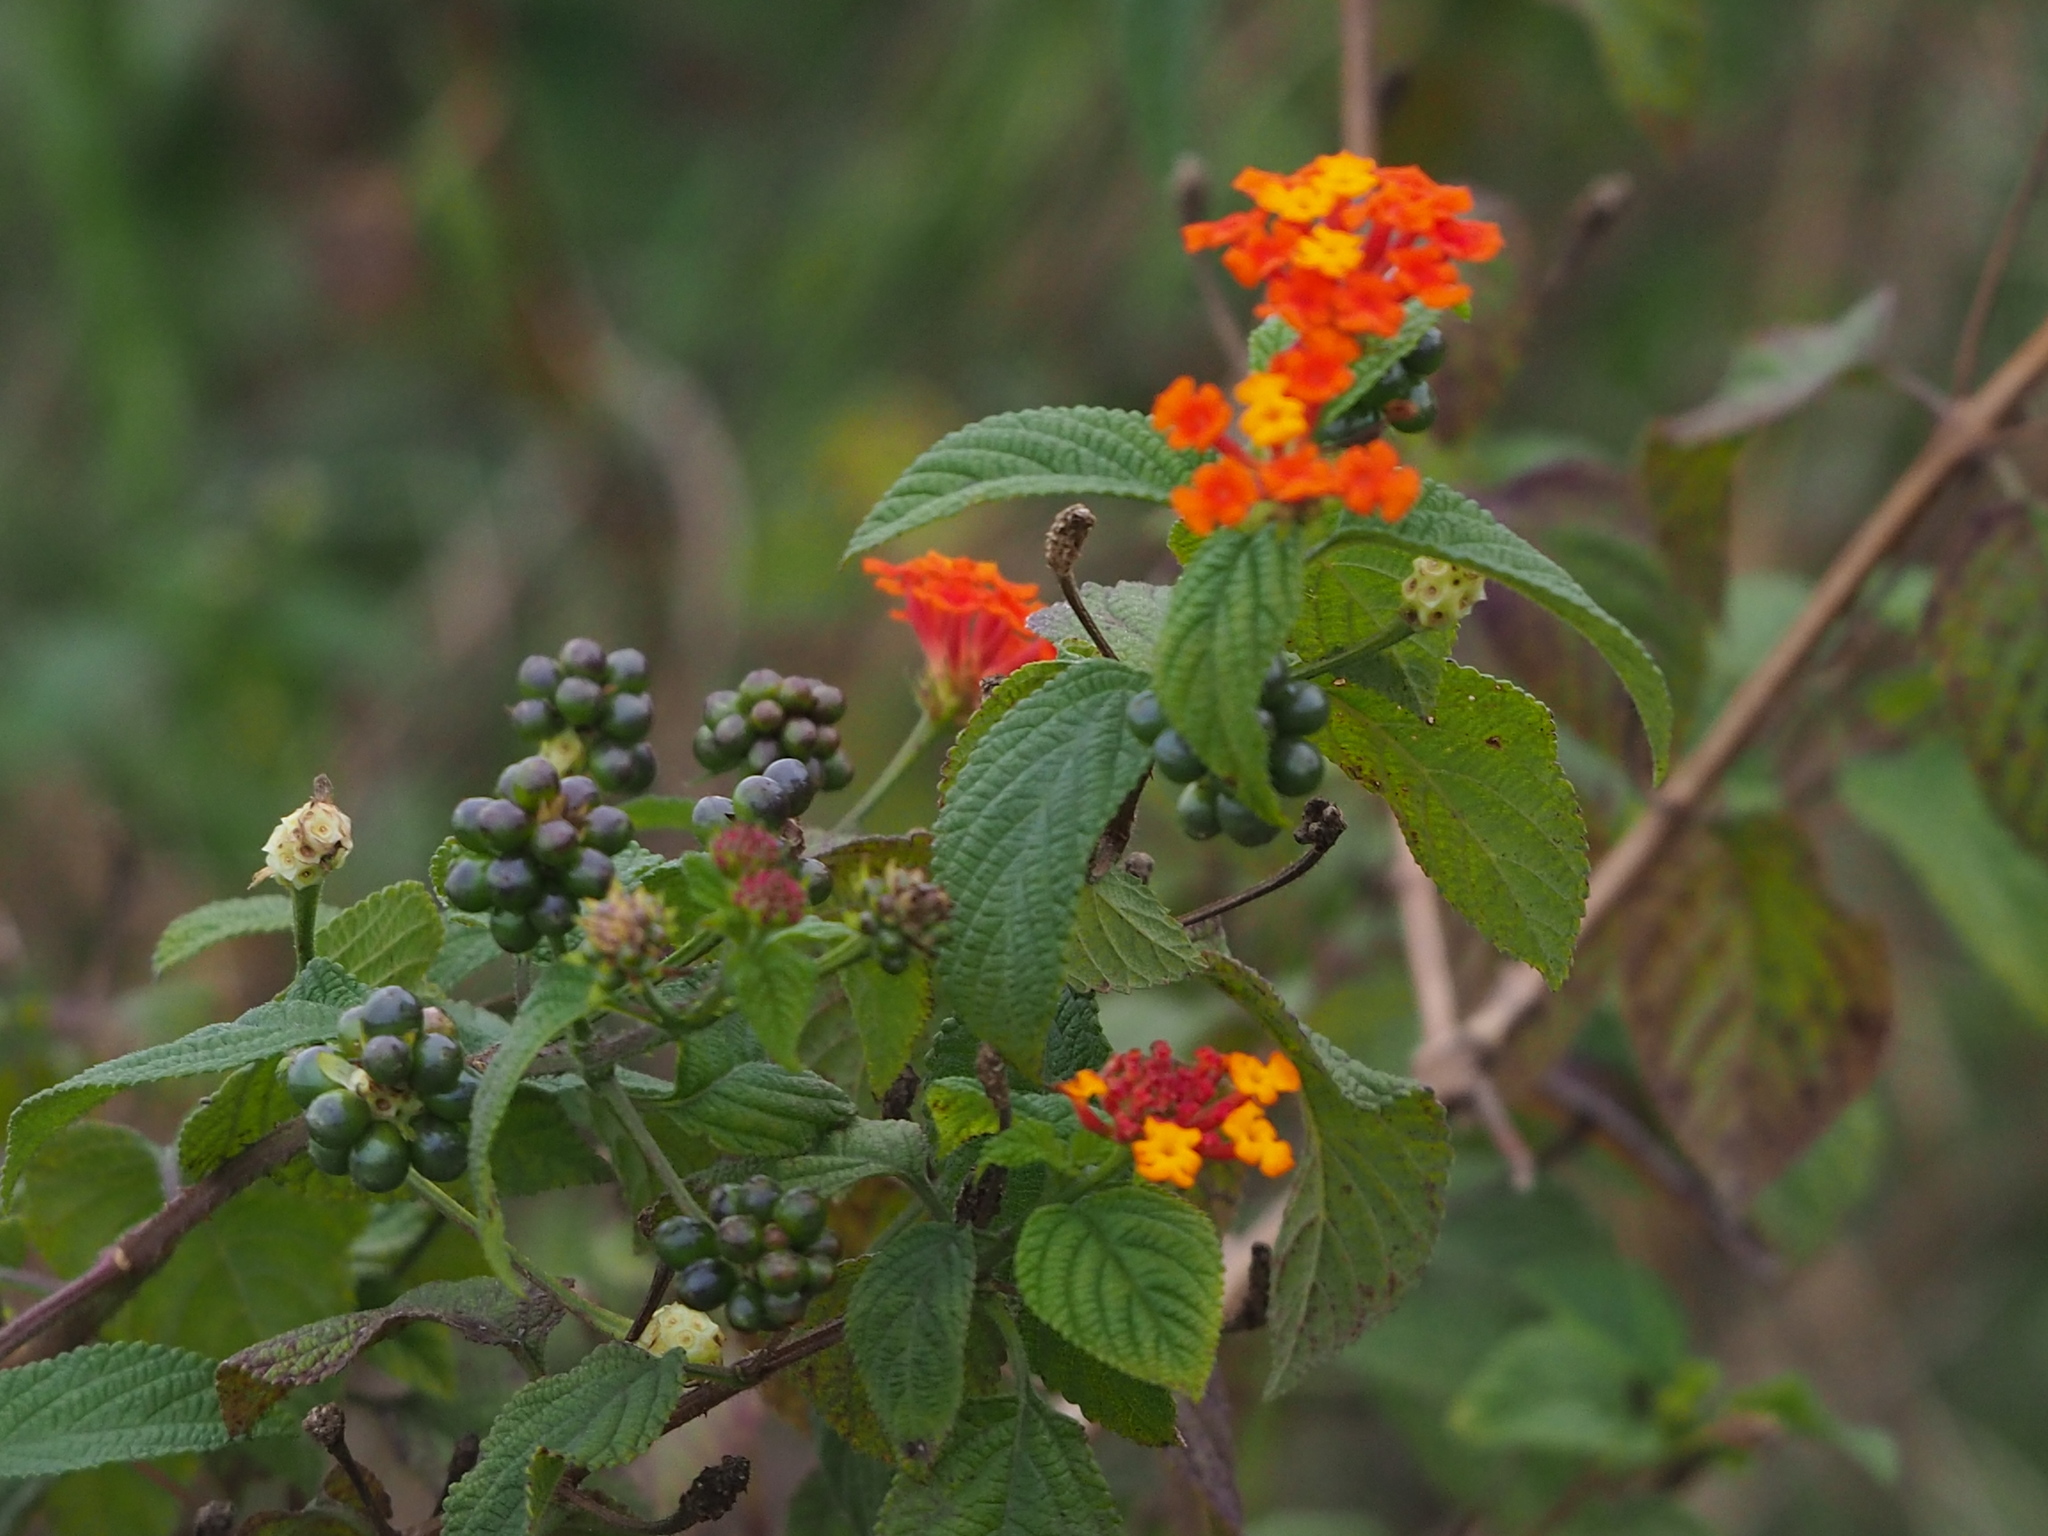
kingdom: Plantae
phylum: Tracheophyta
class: Magnoliopsida
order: Lamiales
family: Verbenaceae
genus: Lantana
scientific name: Lantana camara
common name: Lantana
